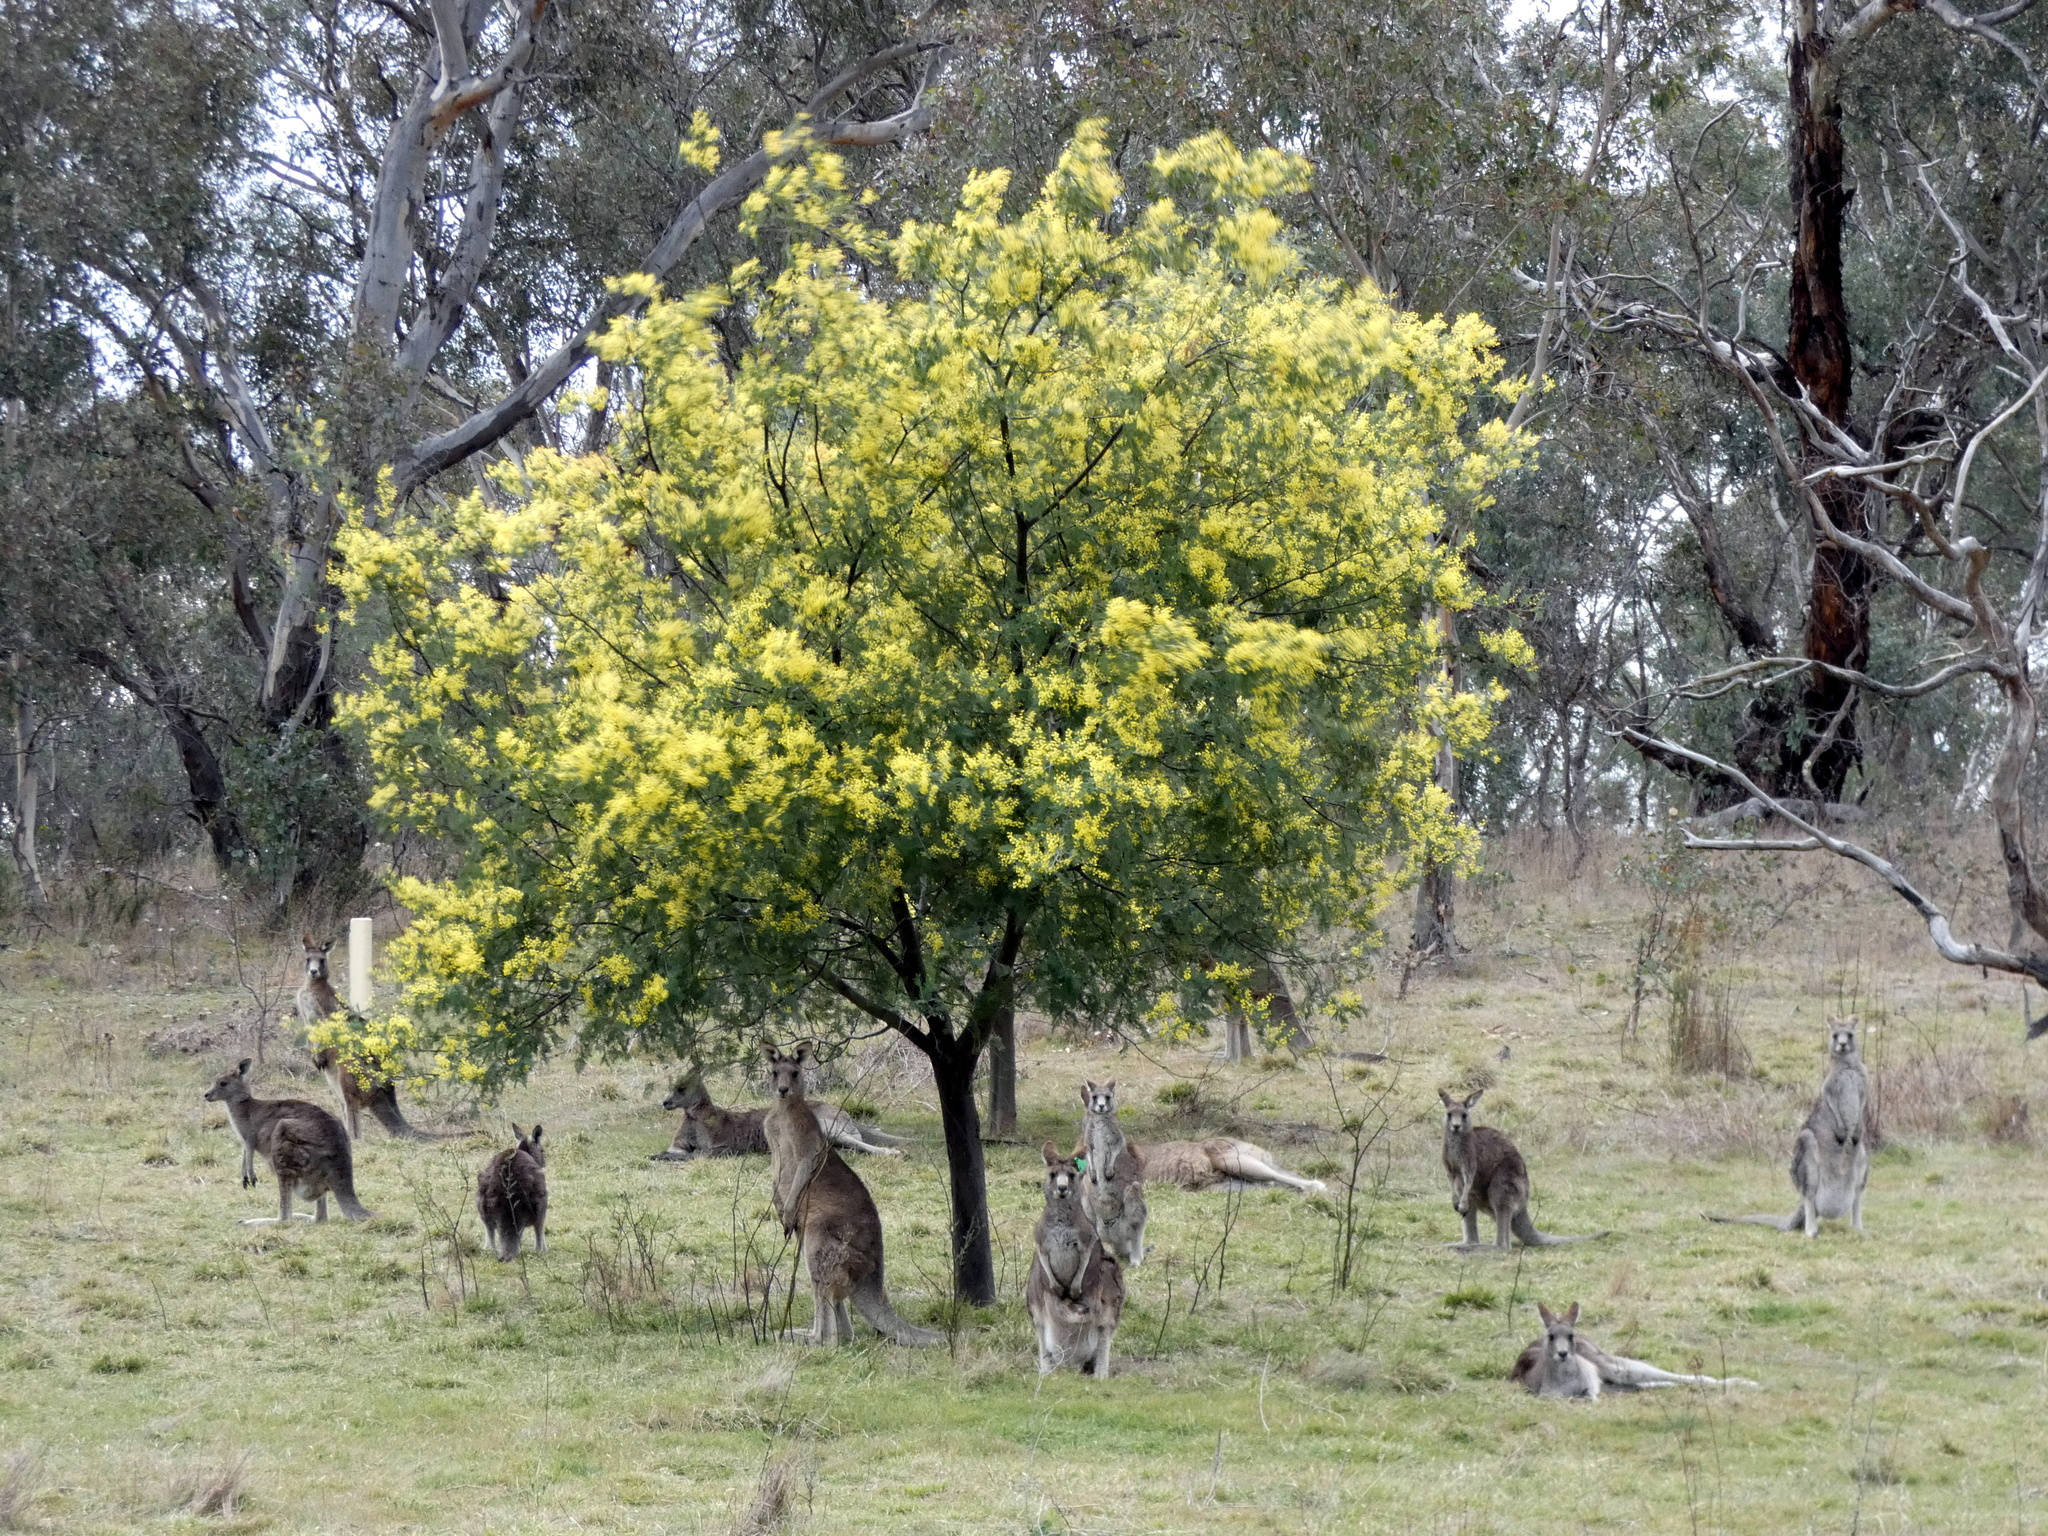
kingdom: Animalia
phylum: Chordata
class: Mammalia
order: Diprotodontia
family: Macropodidae
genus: Macropus
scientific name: Macropus giganteus
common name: Eastern grey kangaroo
